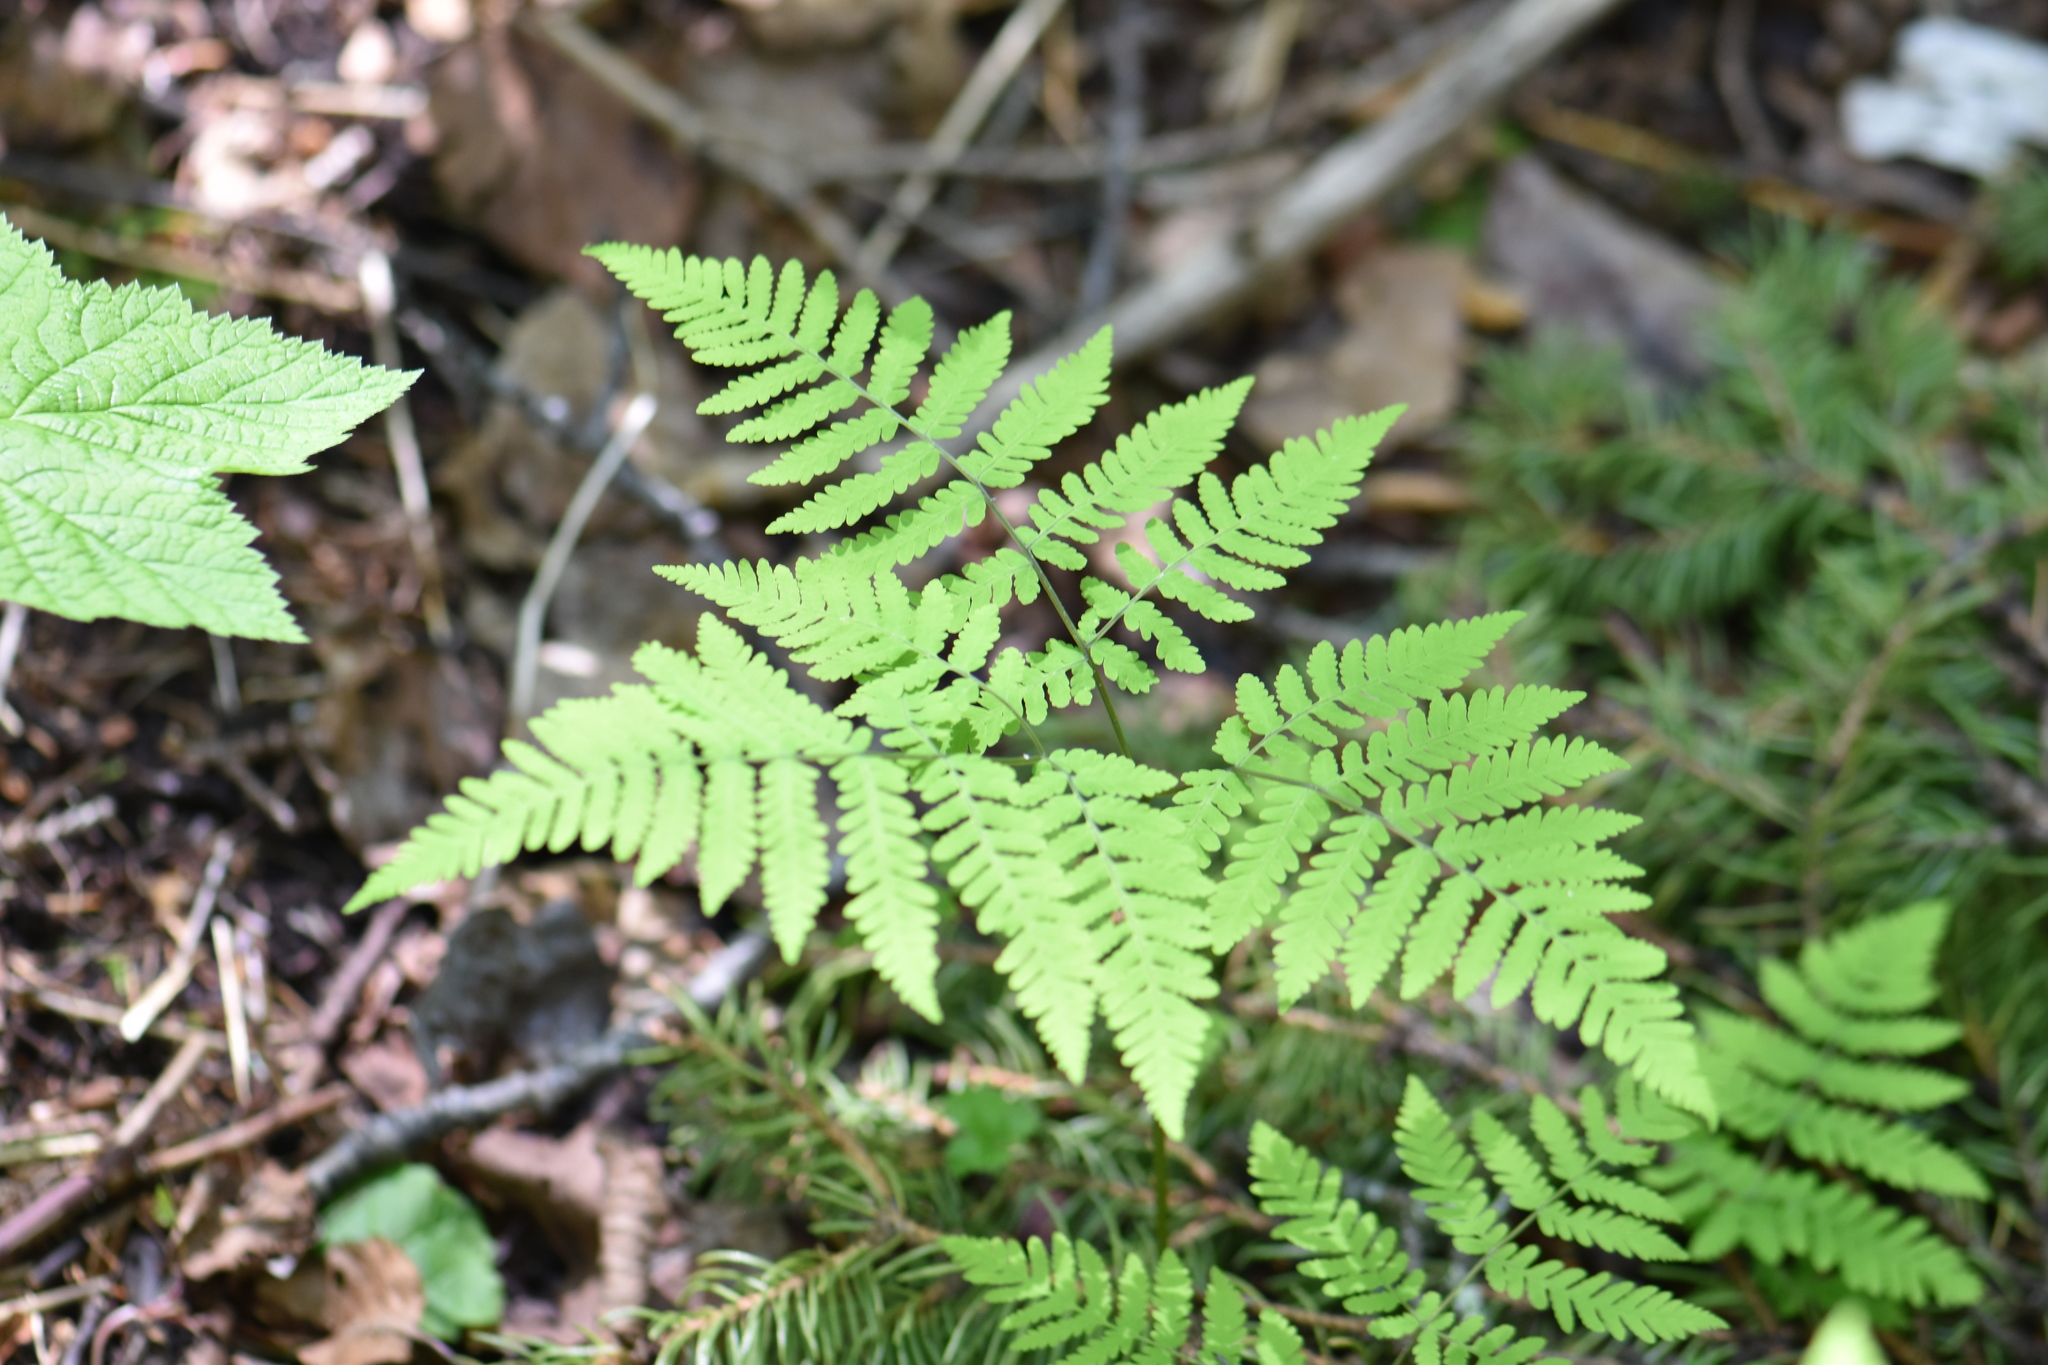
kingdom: Plantae
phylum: Tracheophyta
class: Polypodiopsida
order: Polypodiales
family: Cystopteridaceae
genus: Gymnocarpium
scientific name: Gymnocarpium dryopteris
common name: Oak fern
